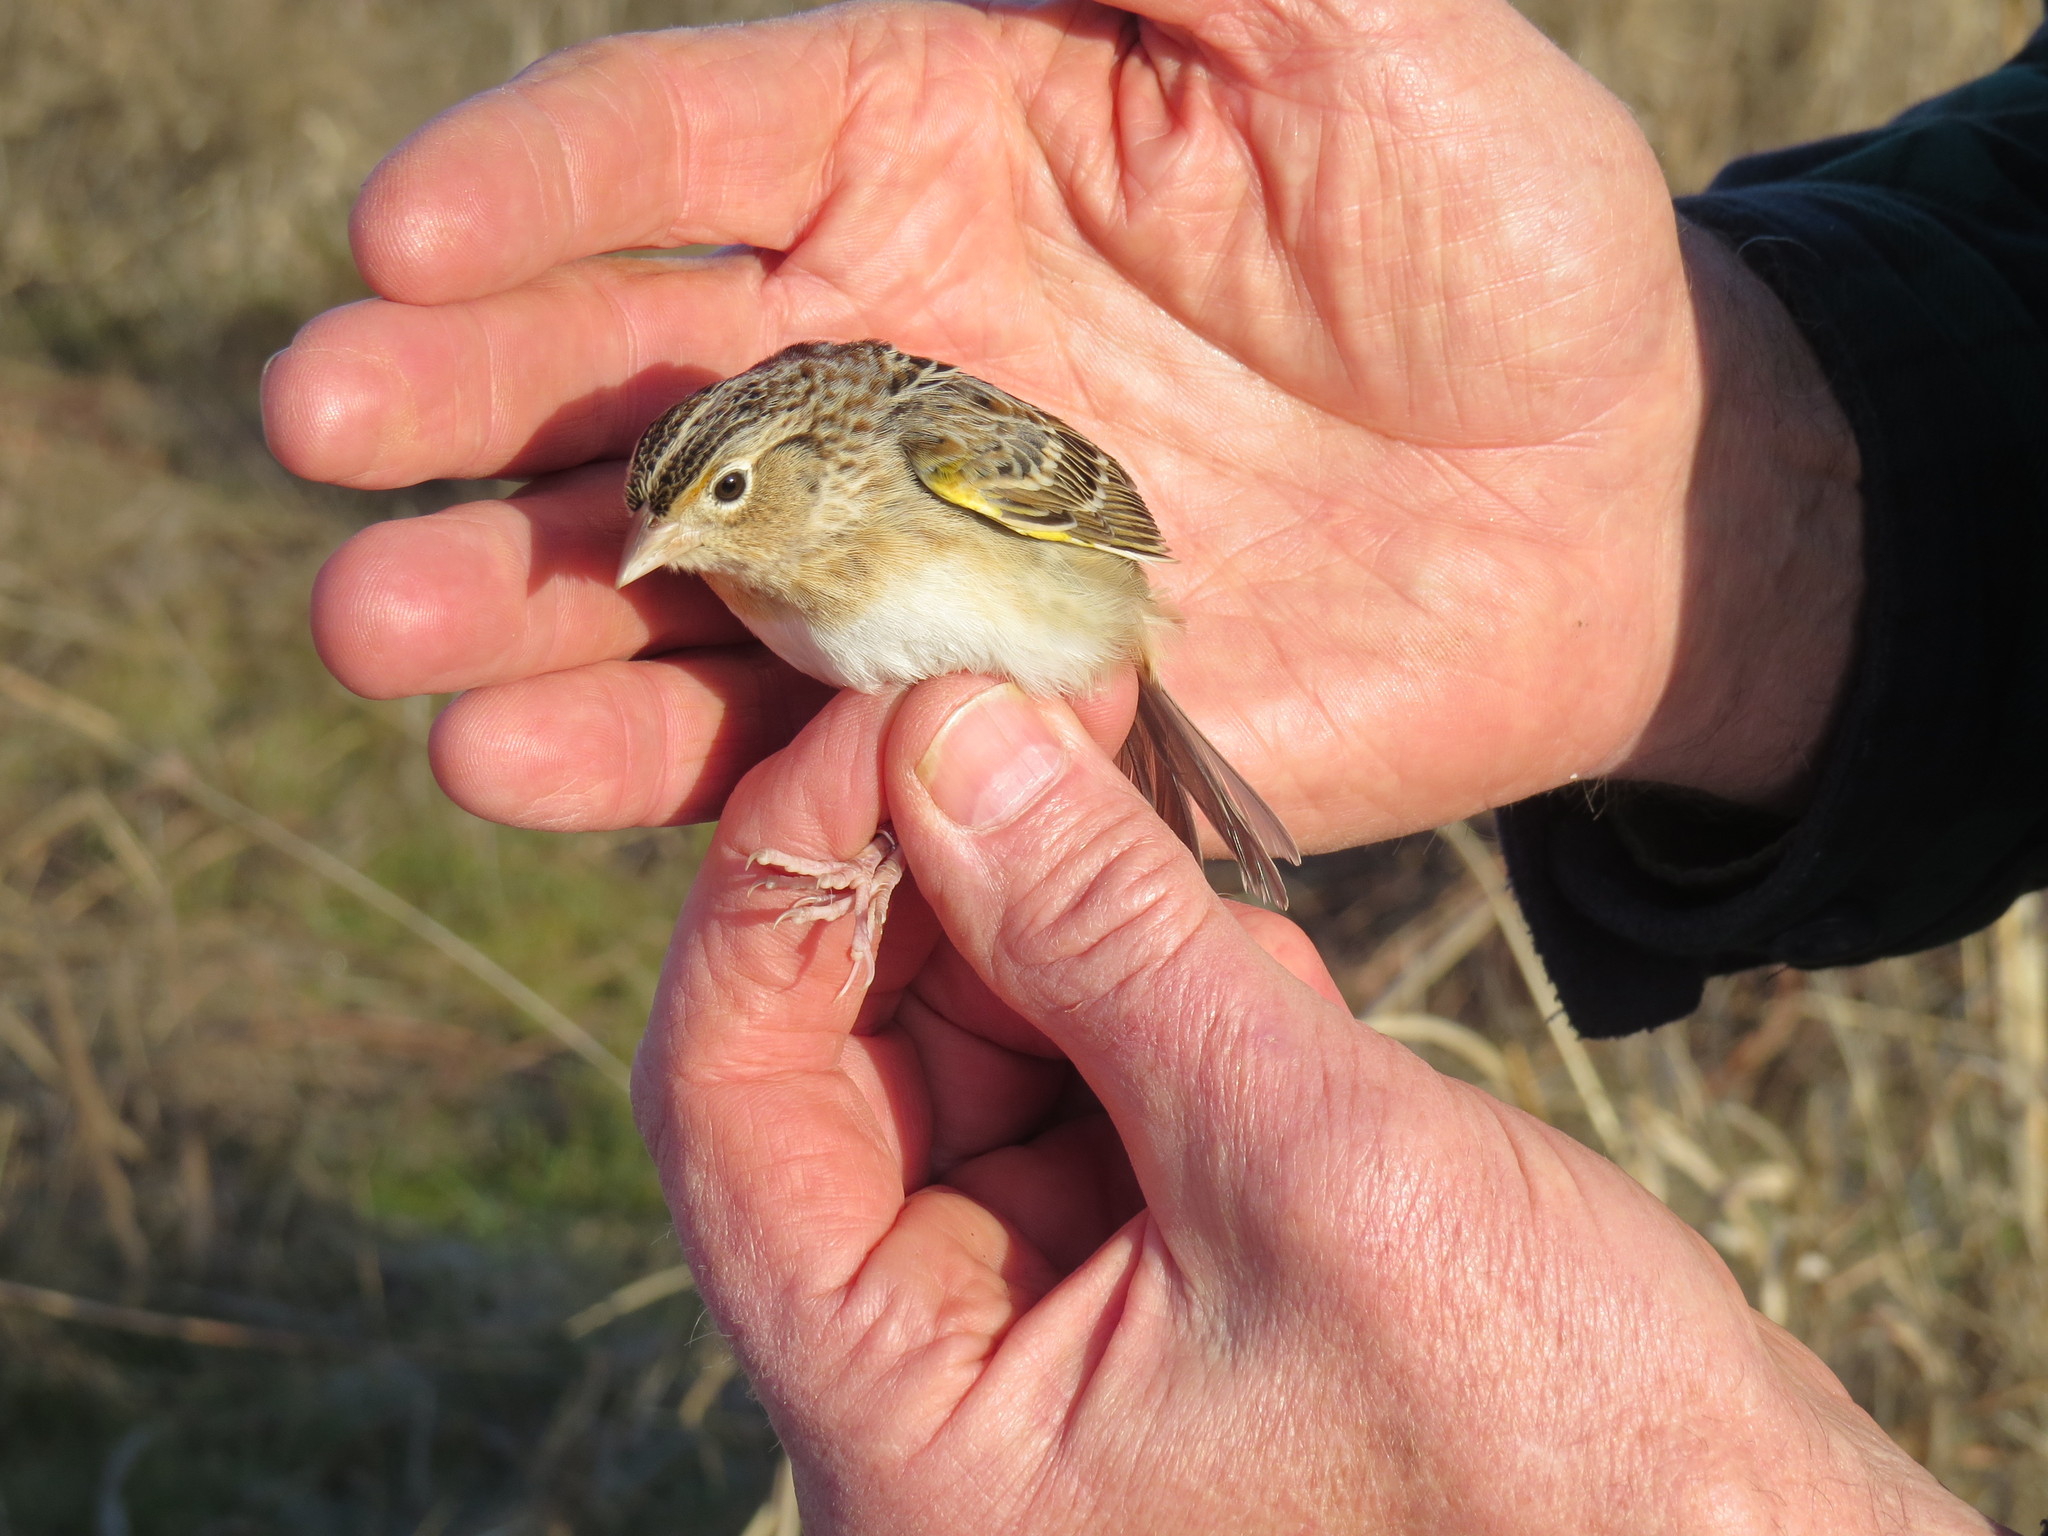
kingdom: Animalia
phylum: Chordata
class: Aves
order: Passeriformes
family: Passerellidae
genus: Ammodramus
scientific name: Ammodramus savannarum
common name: Grasshopper sparrow
